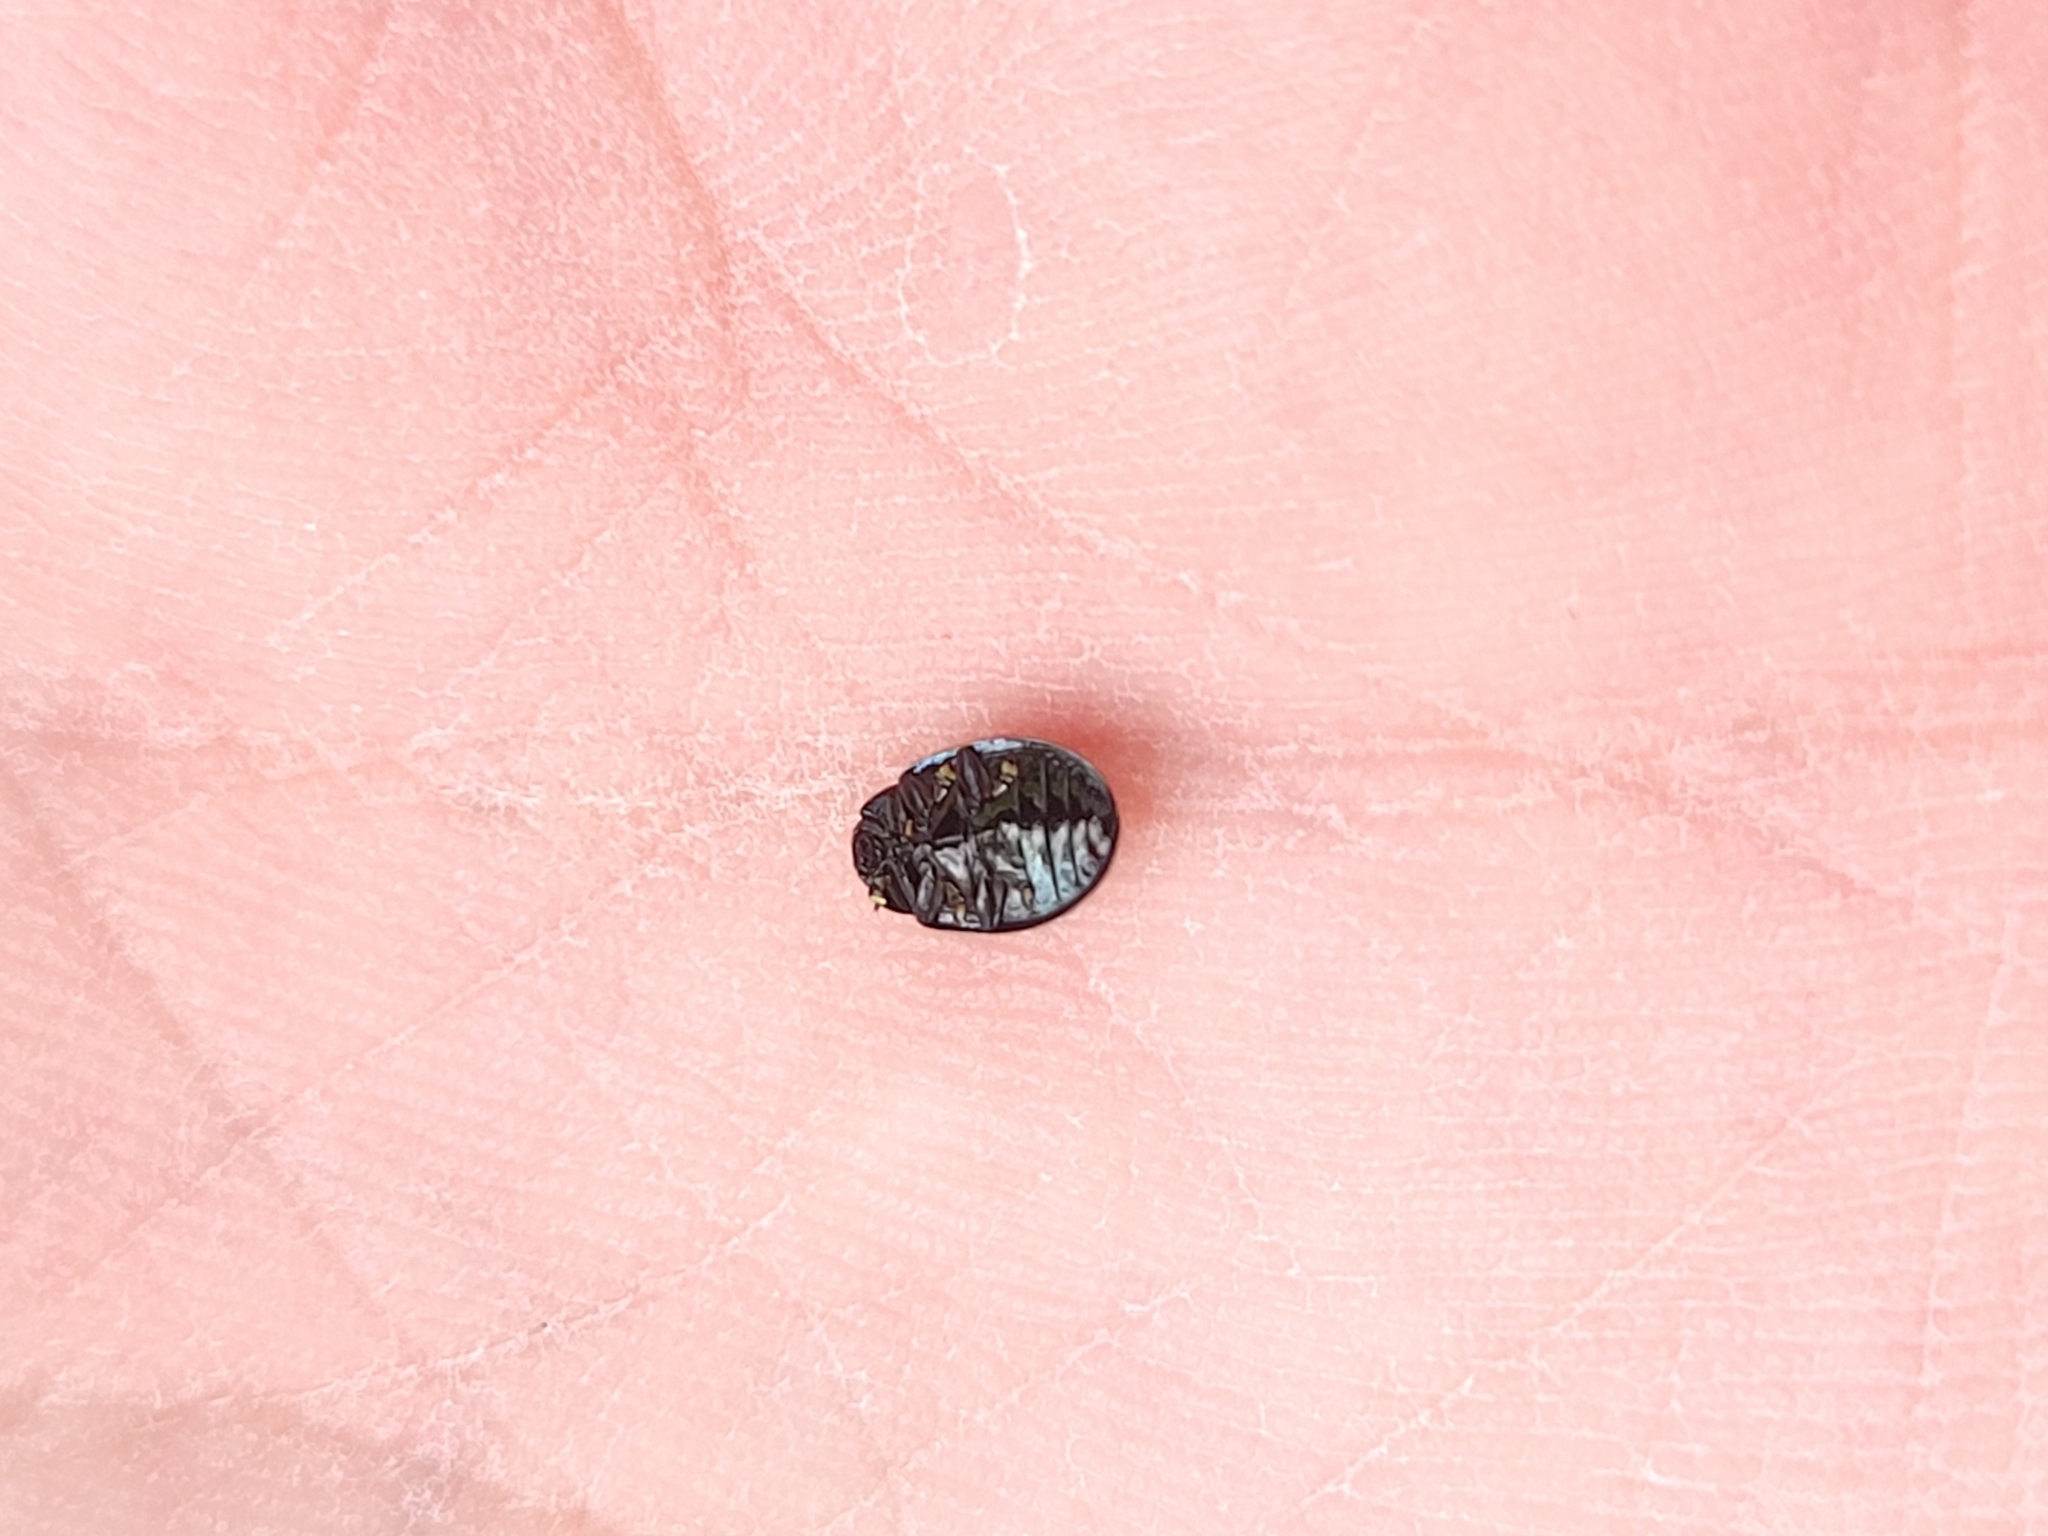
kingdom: Animalia
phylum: Arthropoda
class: Insecta
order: Coleoptera
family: Chrysomelidae
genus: Plagiodera
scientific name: Plagiodera versicolora
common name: Imported willow leaf beetle
